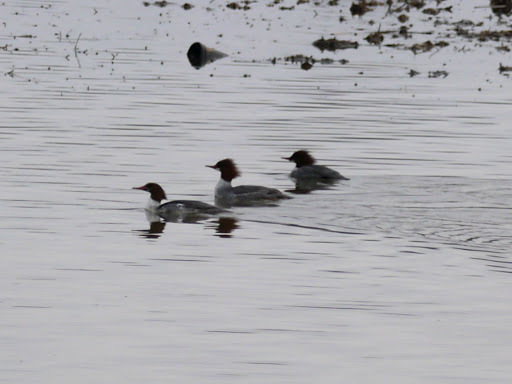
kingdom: Animalia
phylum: Chordata
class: Aves
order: Anseriformes
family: Anatidae
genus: Mergus
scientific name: Mergus merganser
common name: Common merganser
